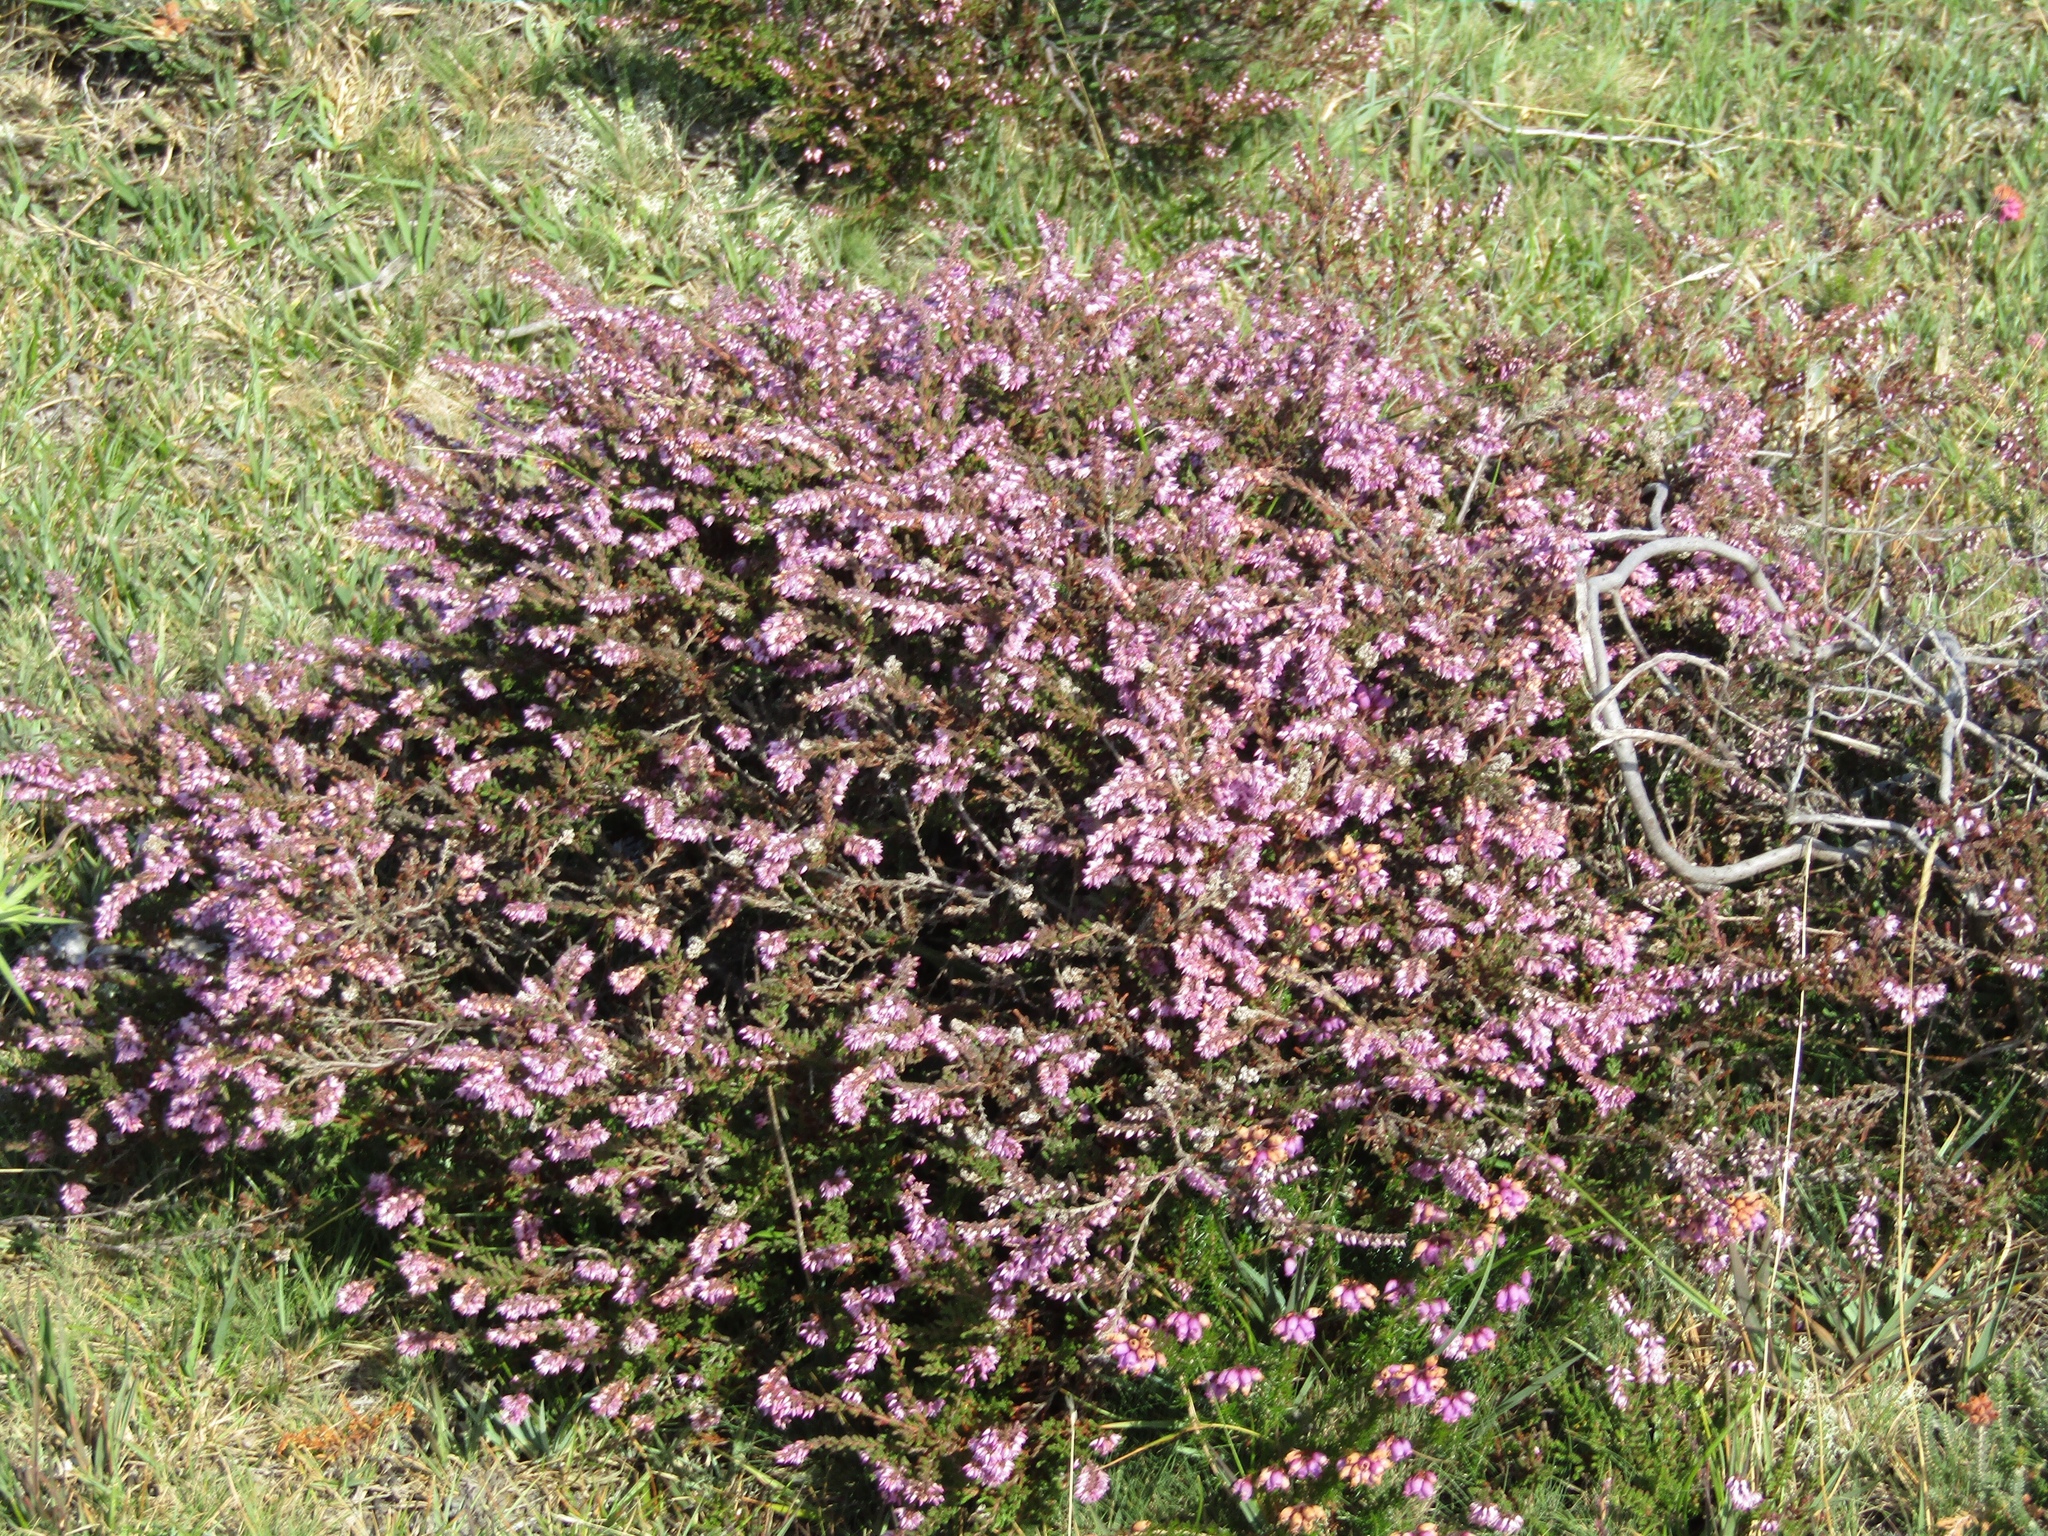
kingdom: Plantae
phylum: Tracheophyta
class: Magnoliopsida
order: Ericales
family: Ericaceae
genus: Calluna
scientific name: Calluna vulgaris
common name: Heather
